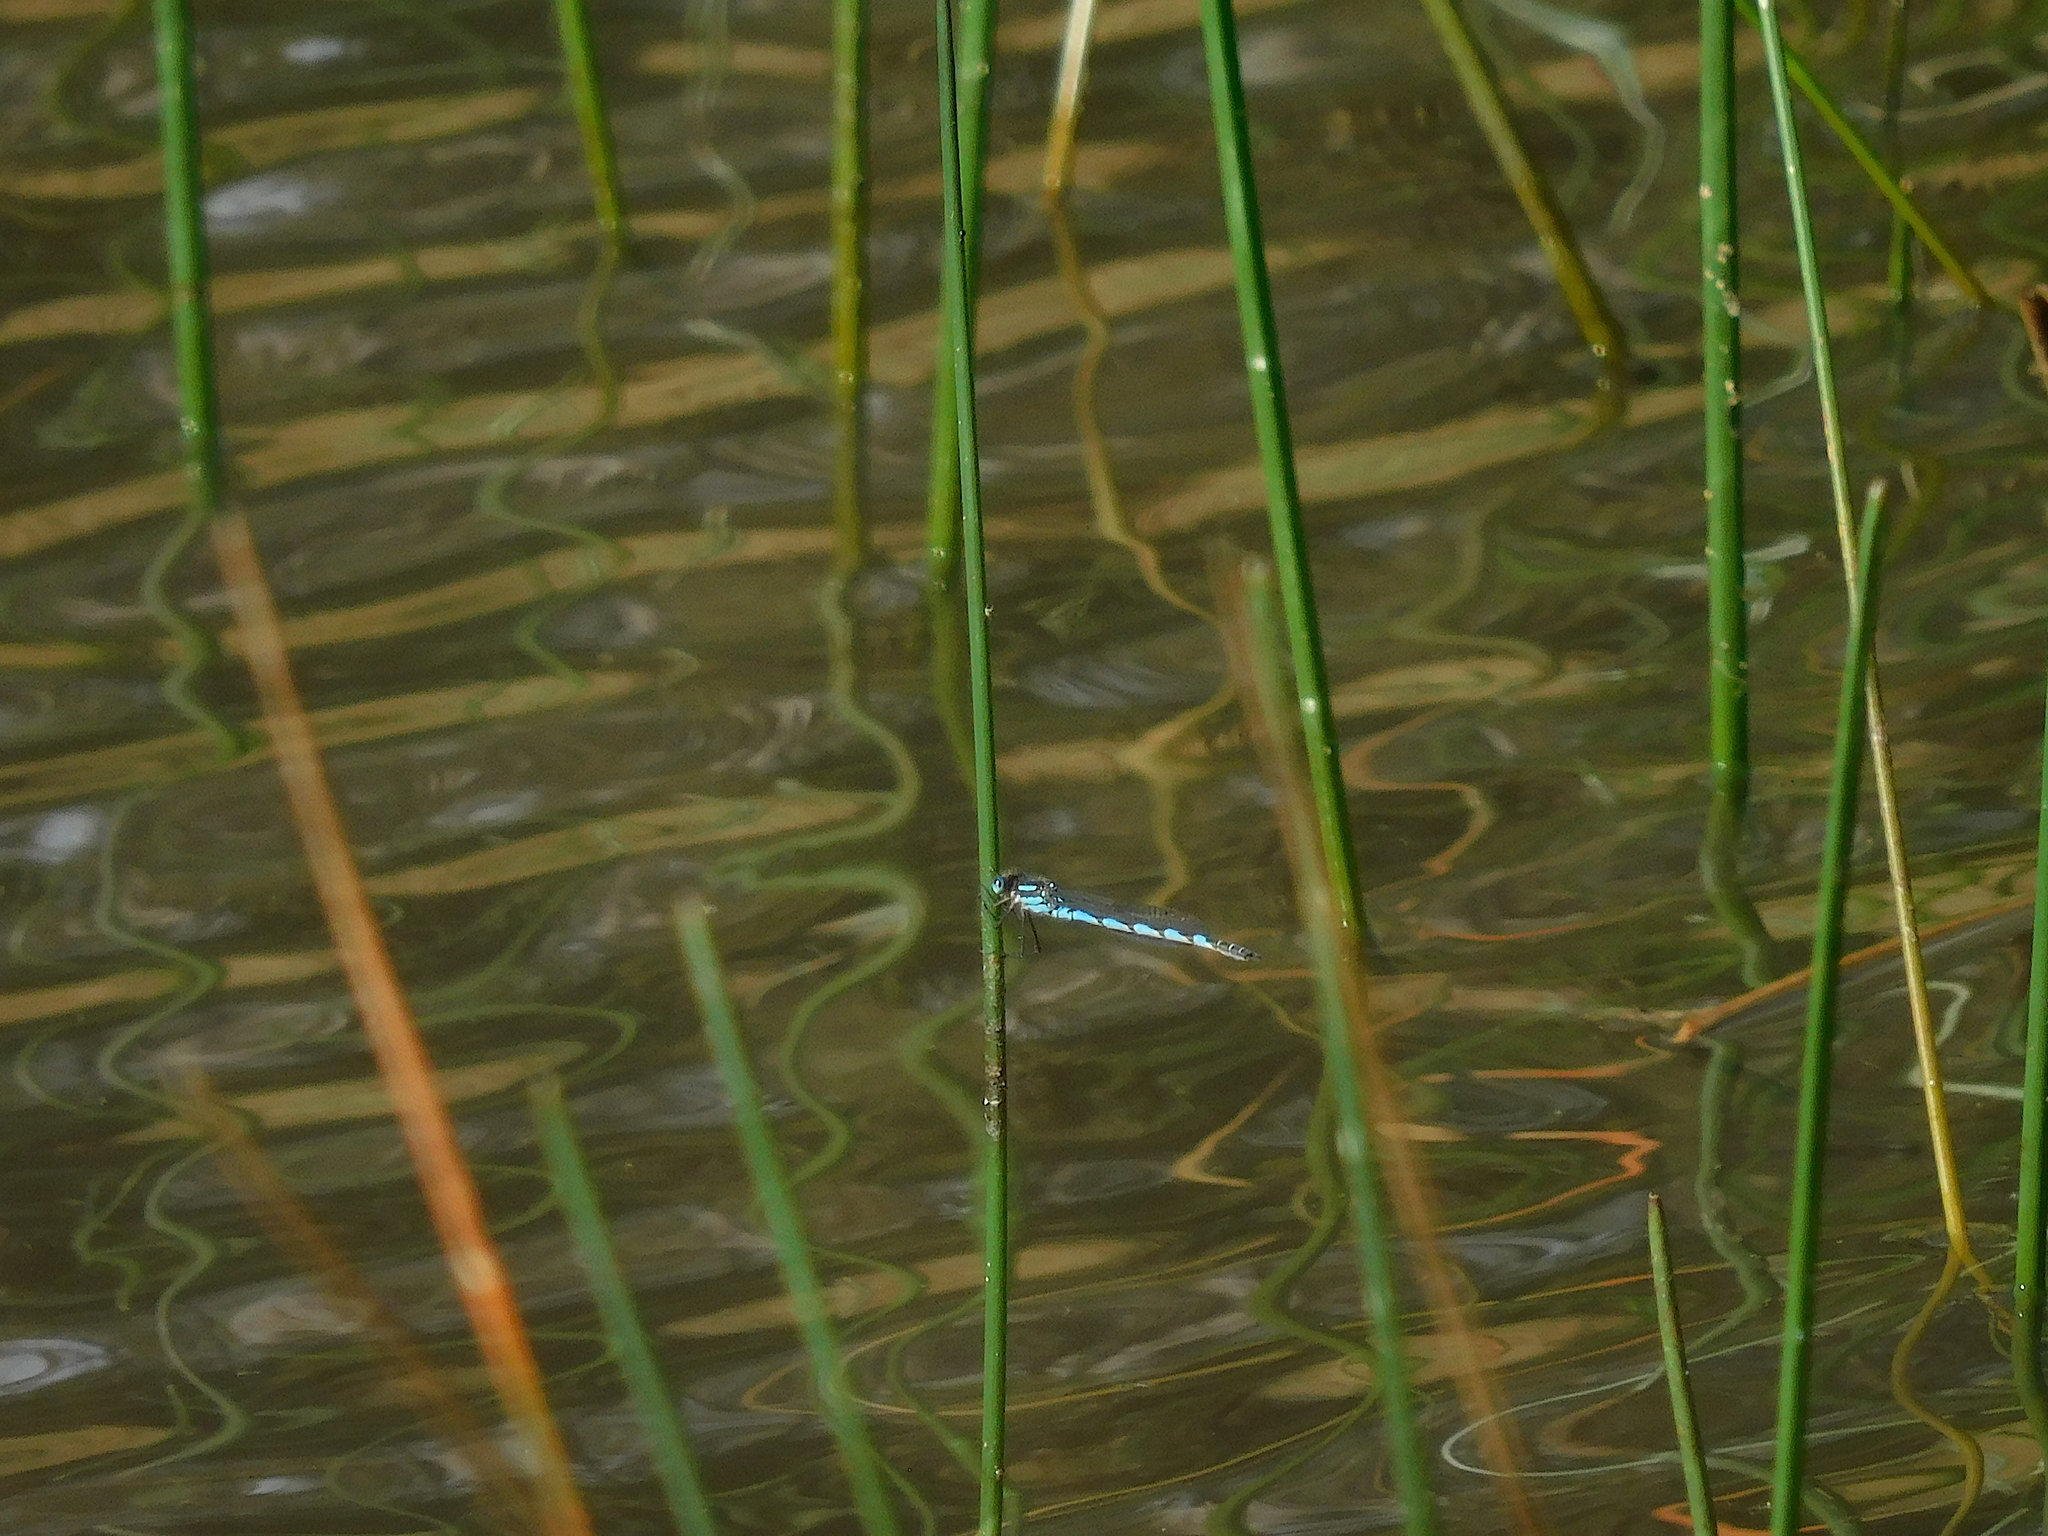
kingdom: Animalia
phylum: Arthropoda
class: Insecta
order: Odonata
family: Lestidae
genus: Austrolestes
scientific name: Austrolestes annulosus
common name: Blue ringtail
